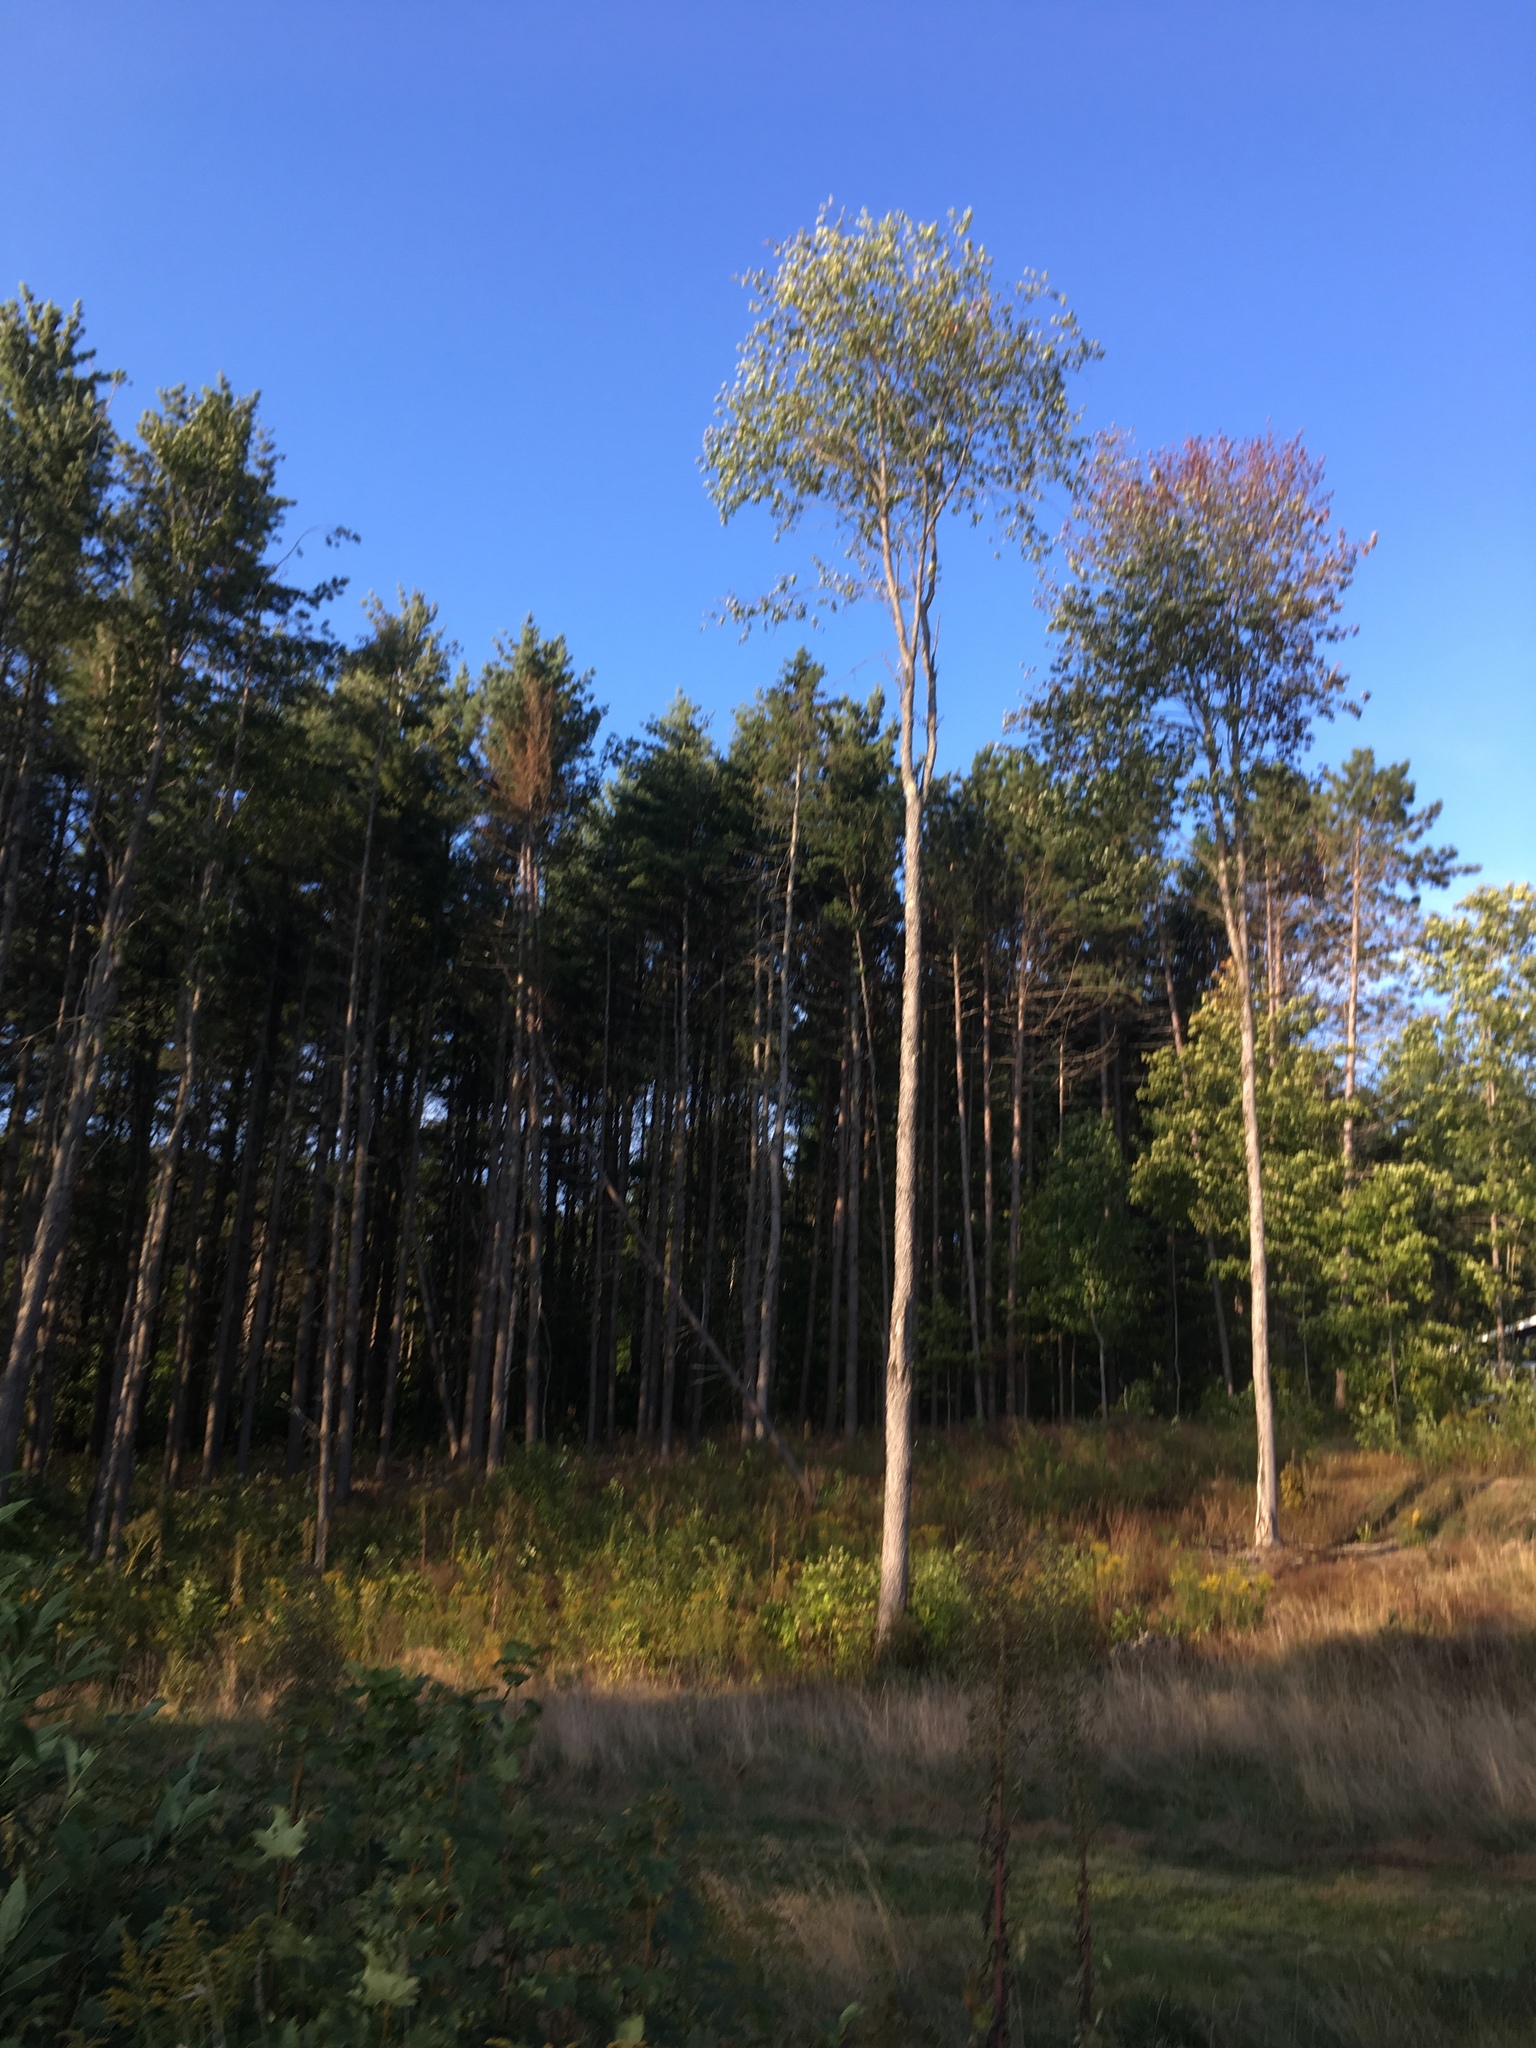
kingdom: Plantae
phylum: Tracheophyta
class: Magnoliopsida
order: Rosales
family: Rosaceae
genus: Prunus
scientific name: Prunus serotina
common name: Black cherry
